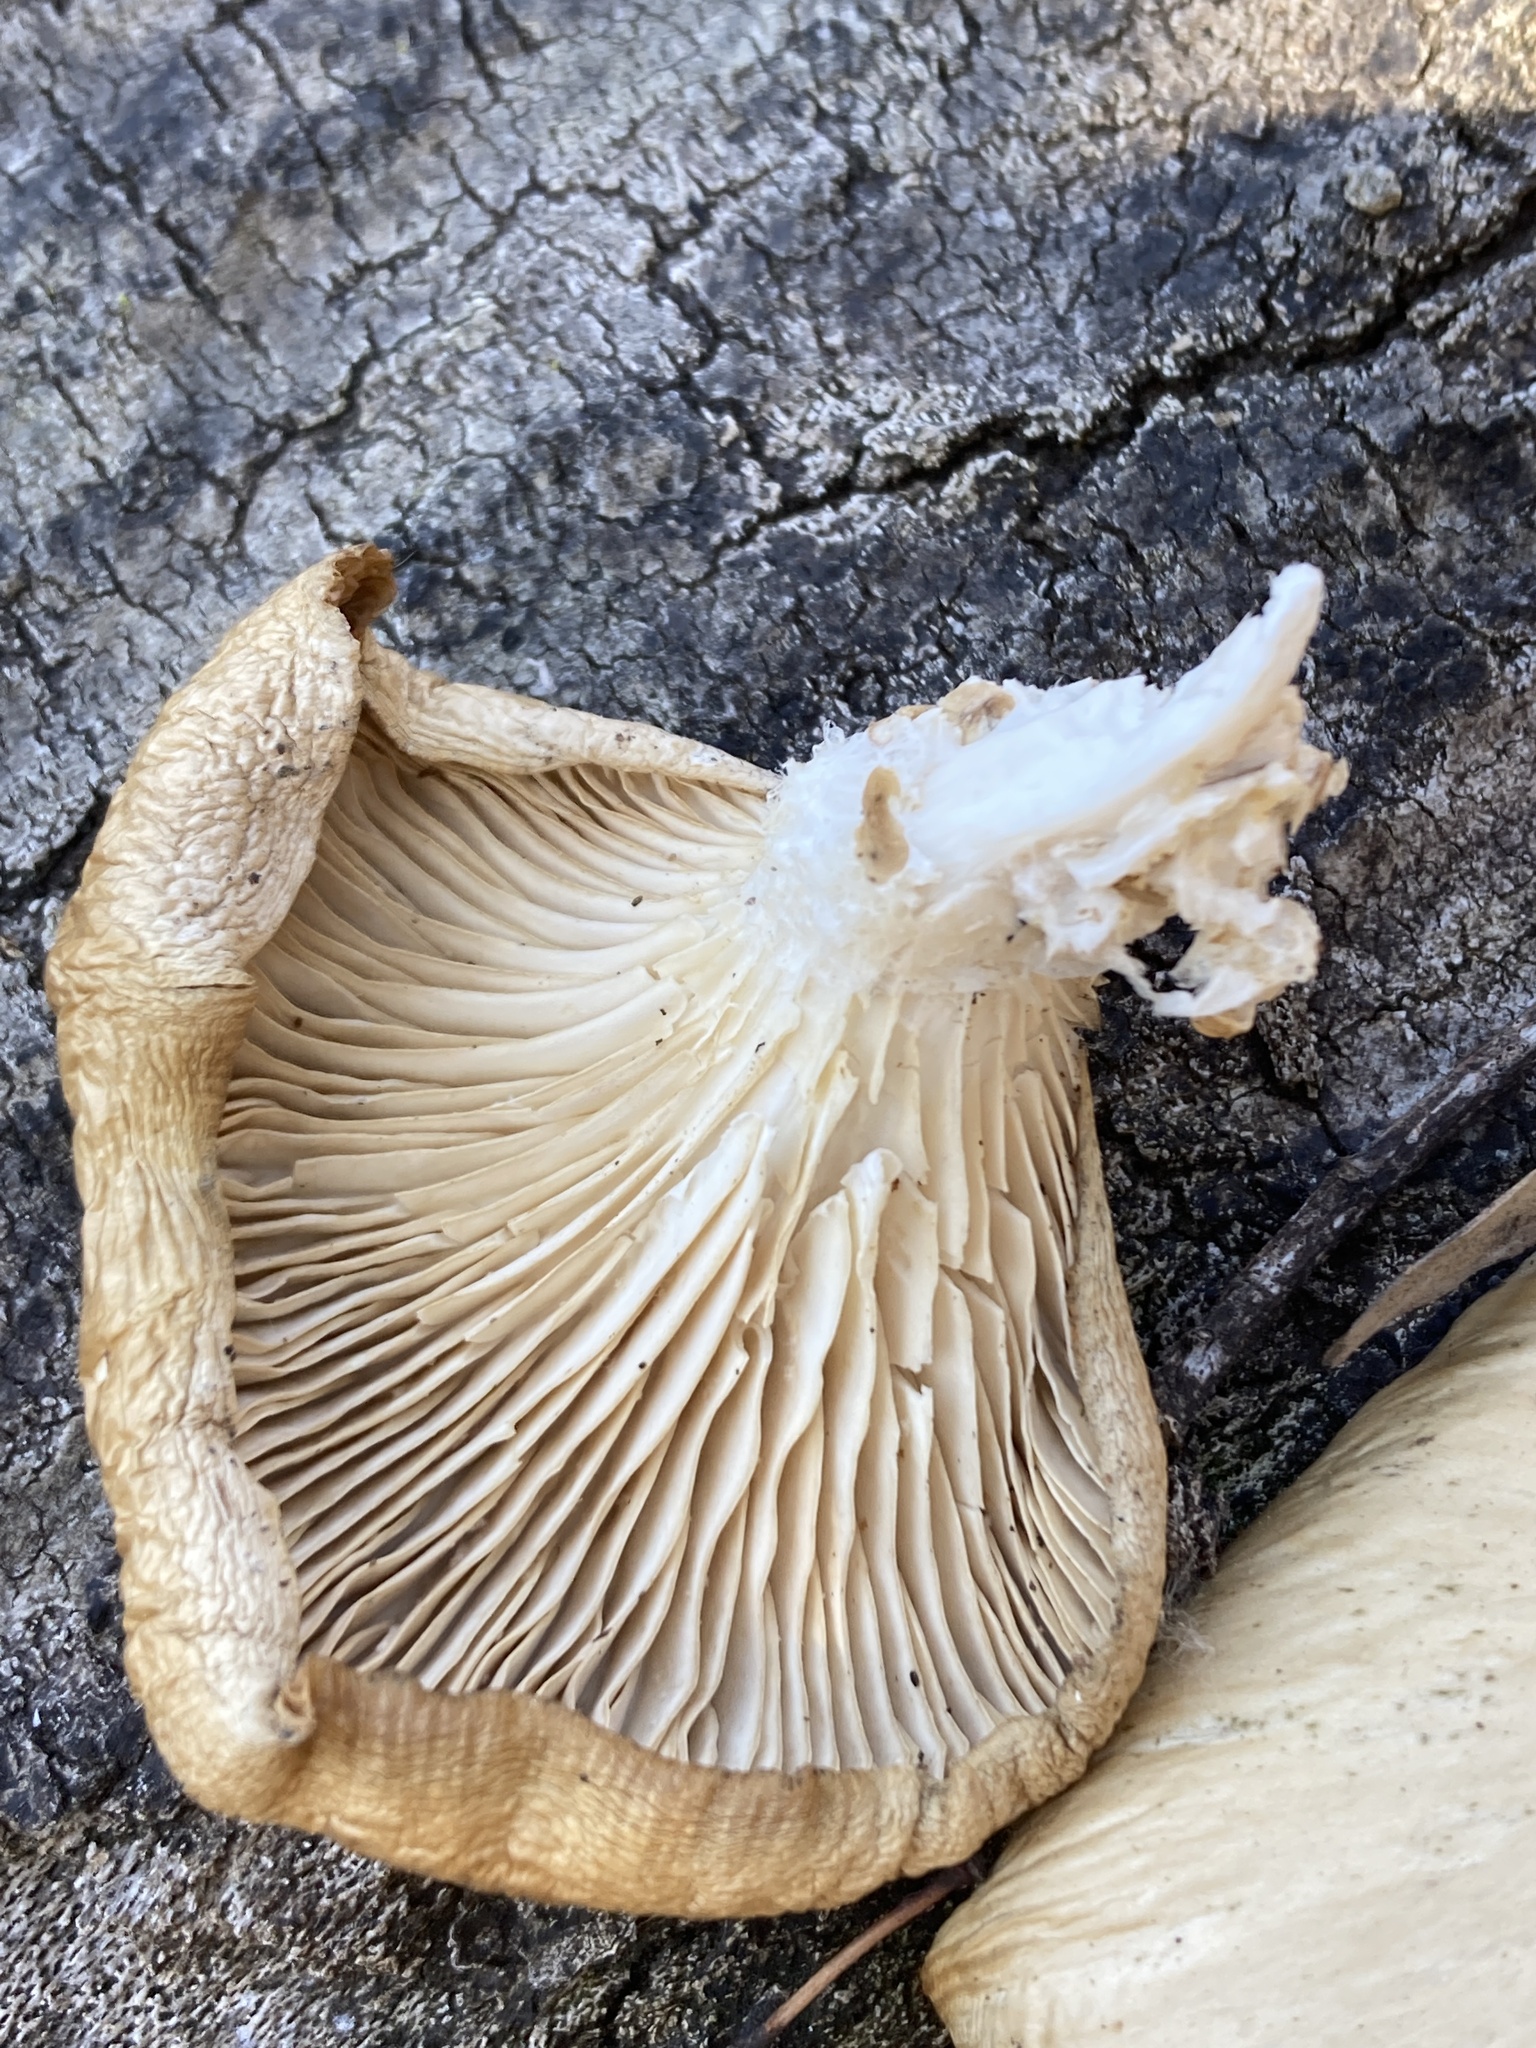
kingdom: Fungi
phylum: Basidiomycota
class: Agaricomycetes
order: Agaricales
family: Pleurotaceae
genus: Pleurotus
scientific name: Pleurotus ostreatus
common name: Oyster mushroom
